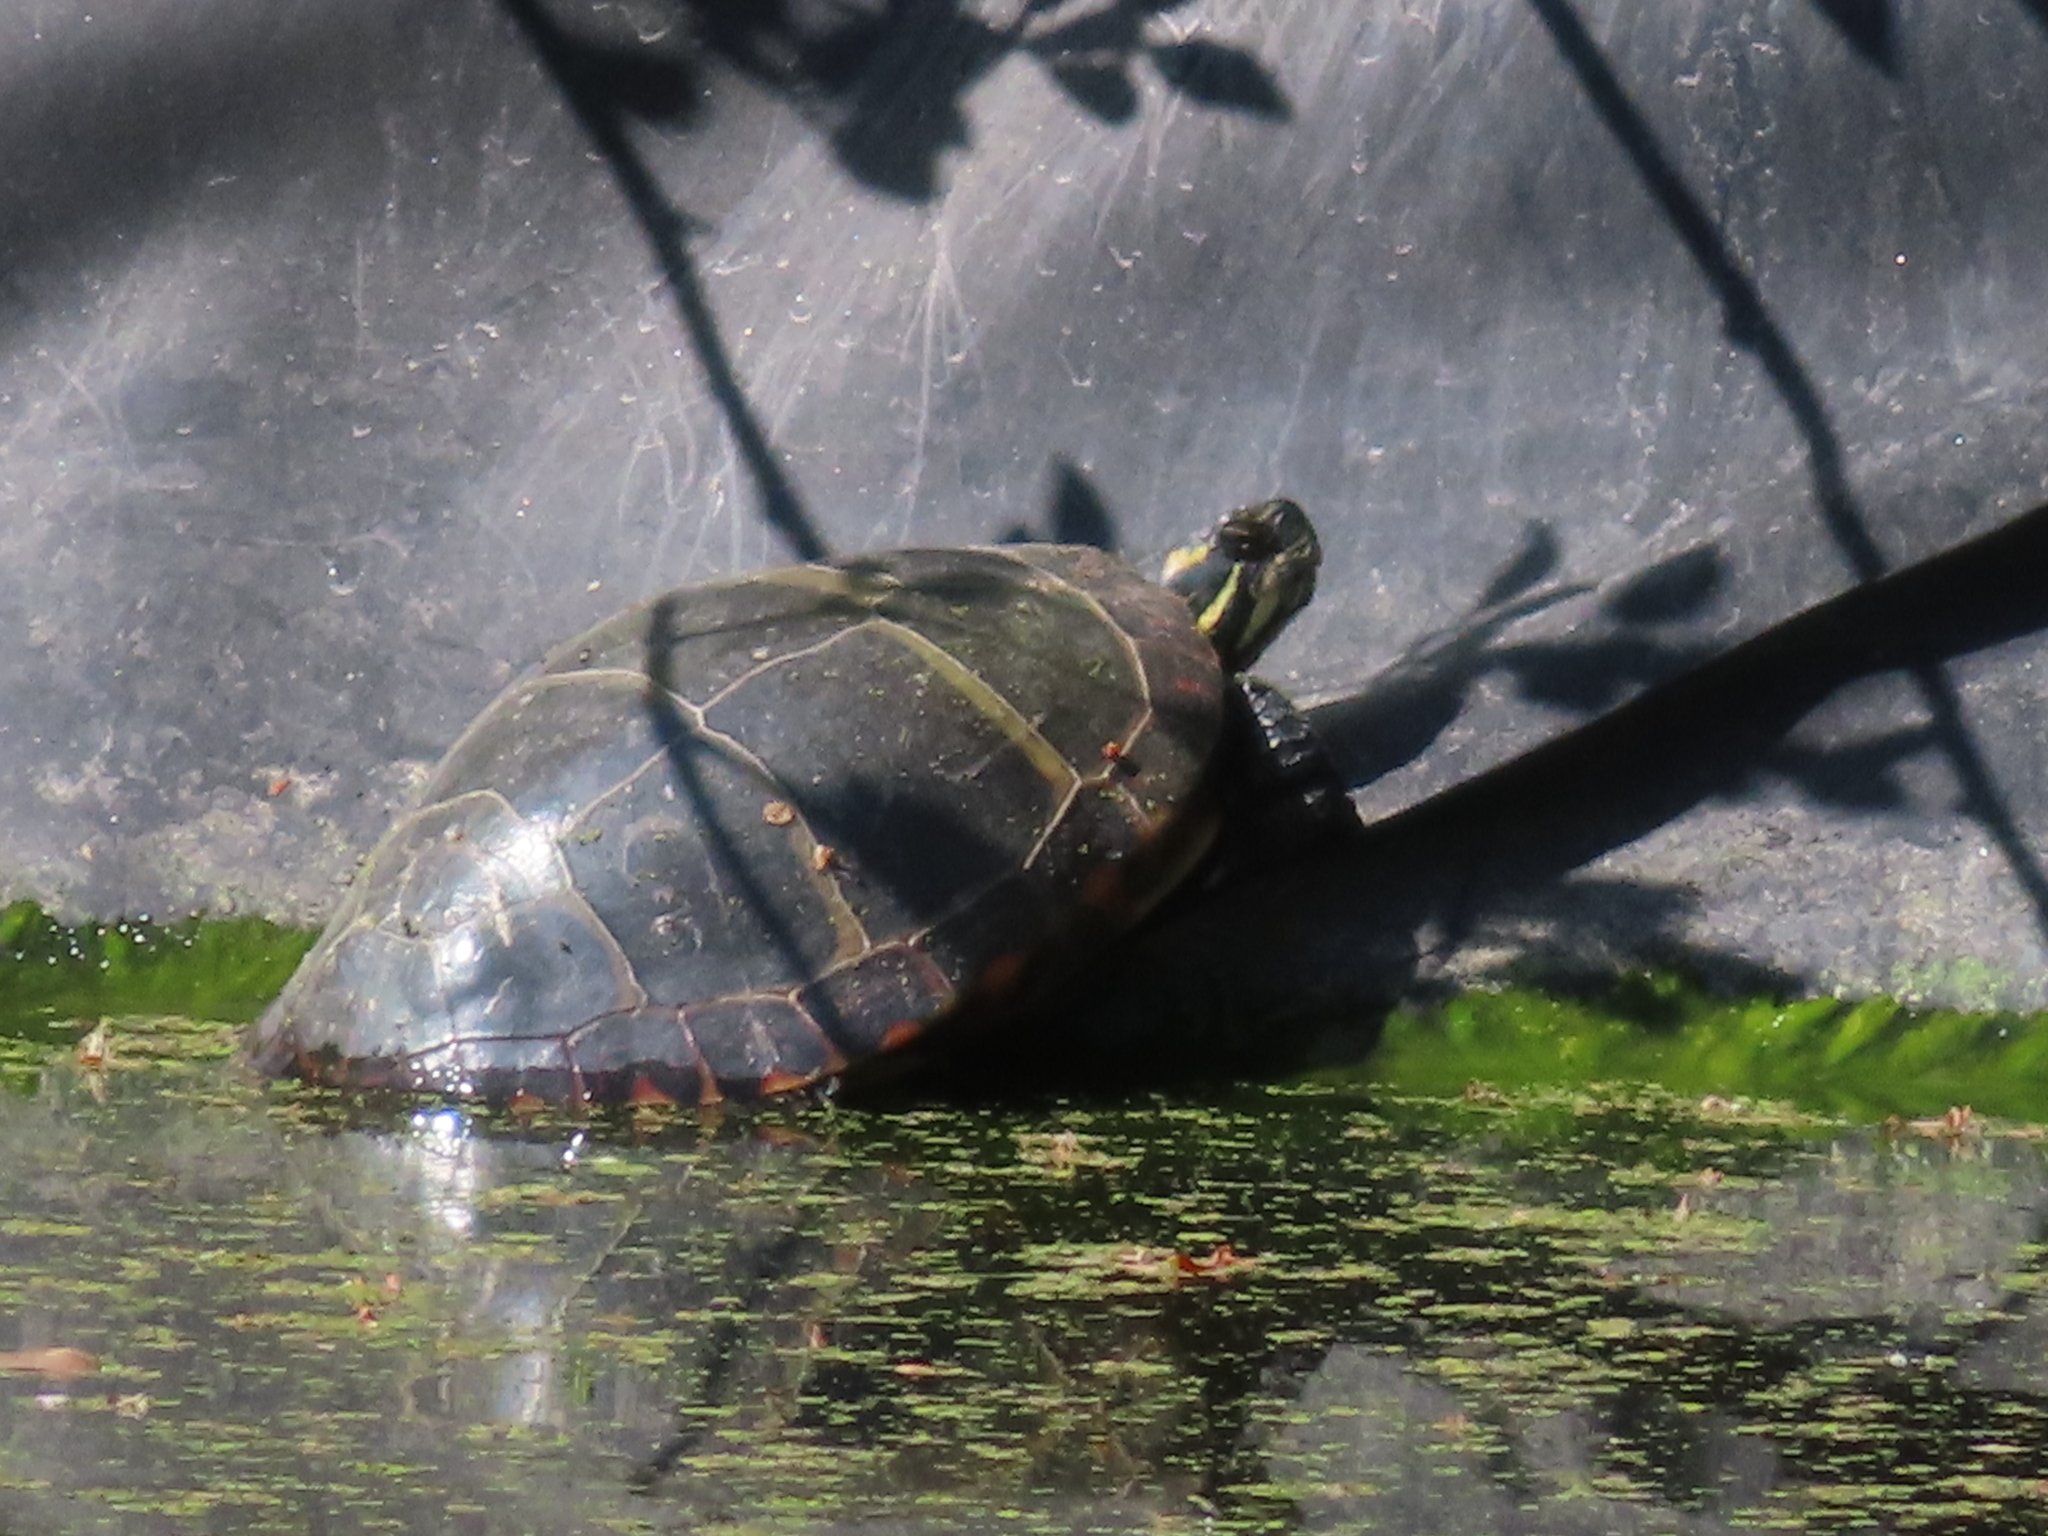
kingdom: Animalia
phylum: Chordata
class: Testudines
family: Emydidae
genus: Chrysemys
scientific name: Chrysemys picta
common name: Painted turtle
